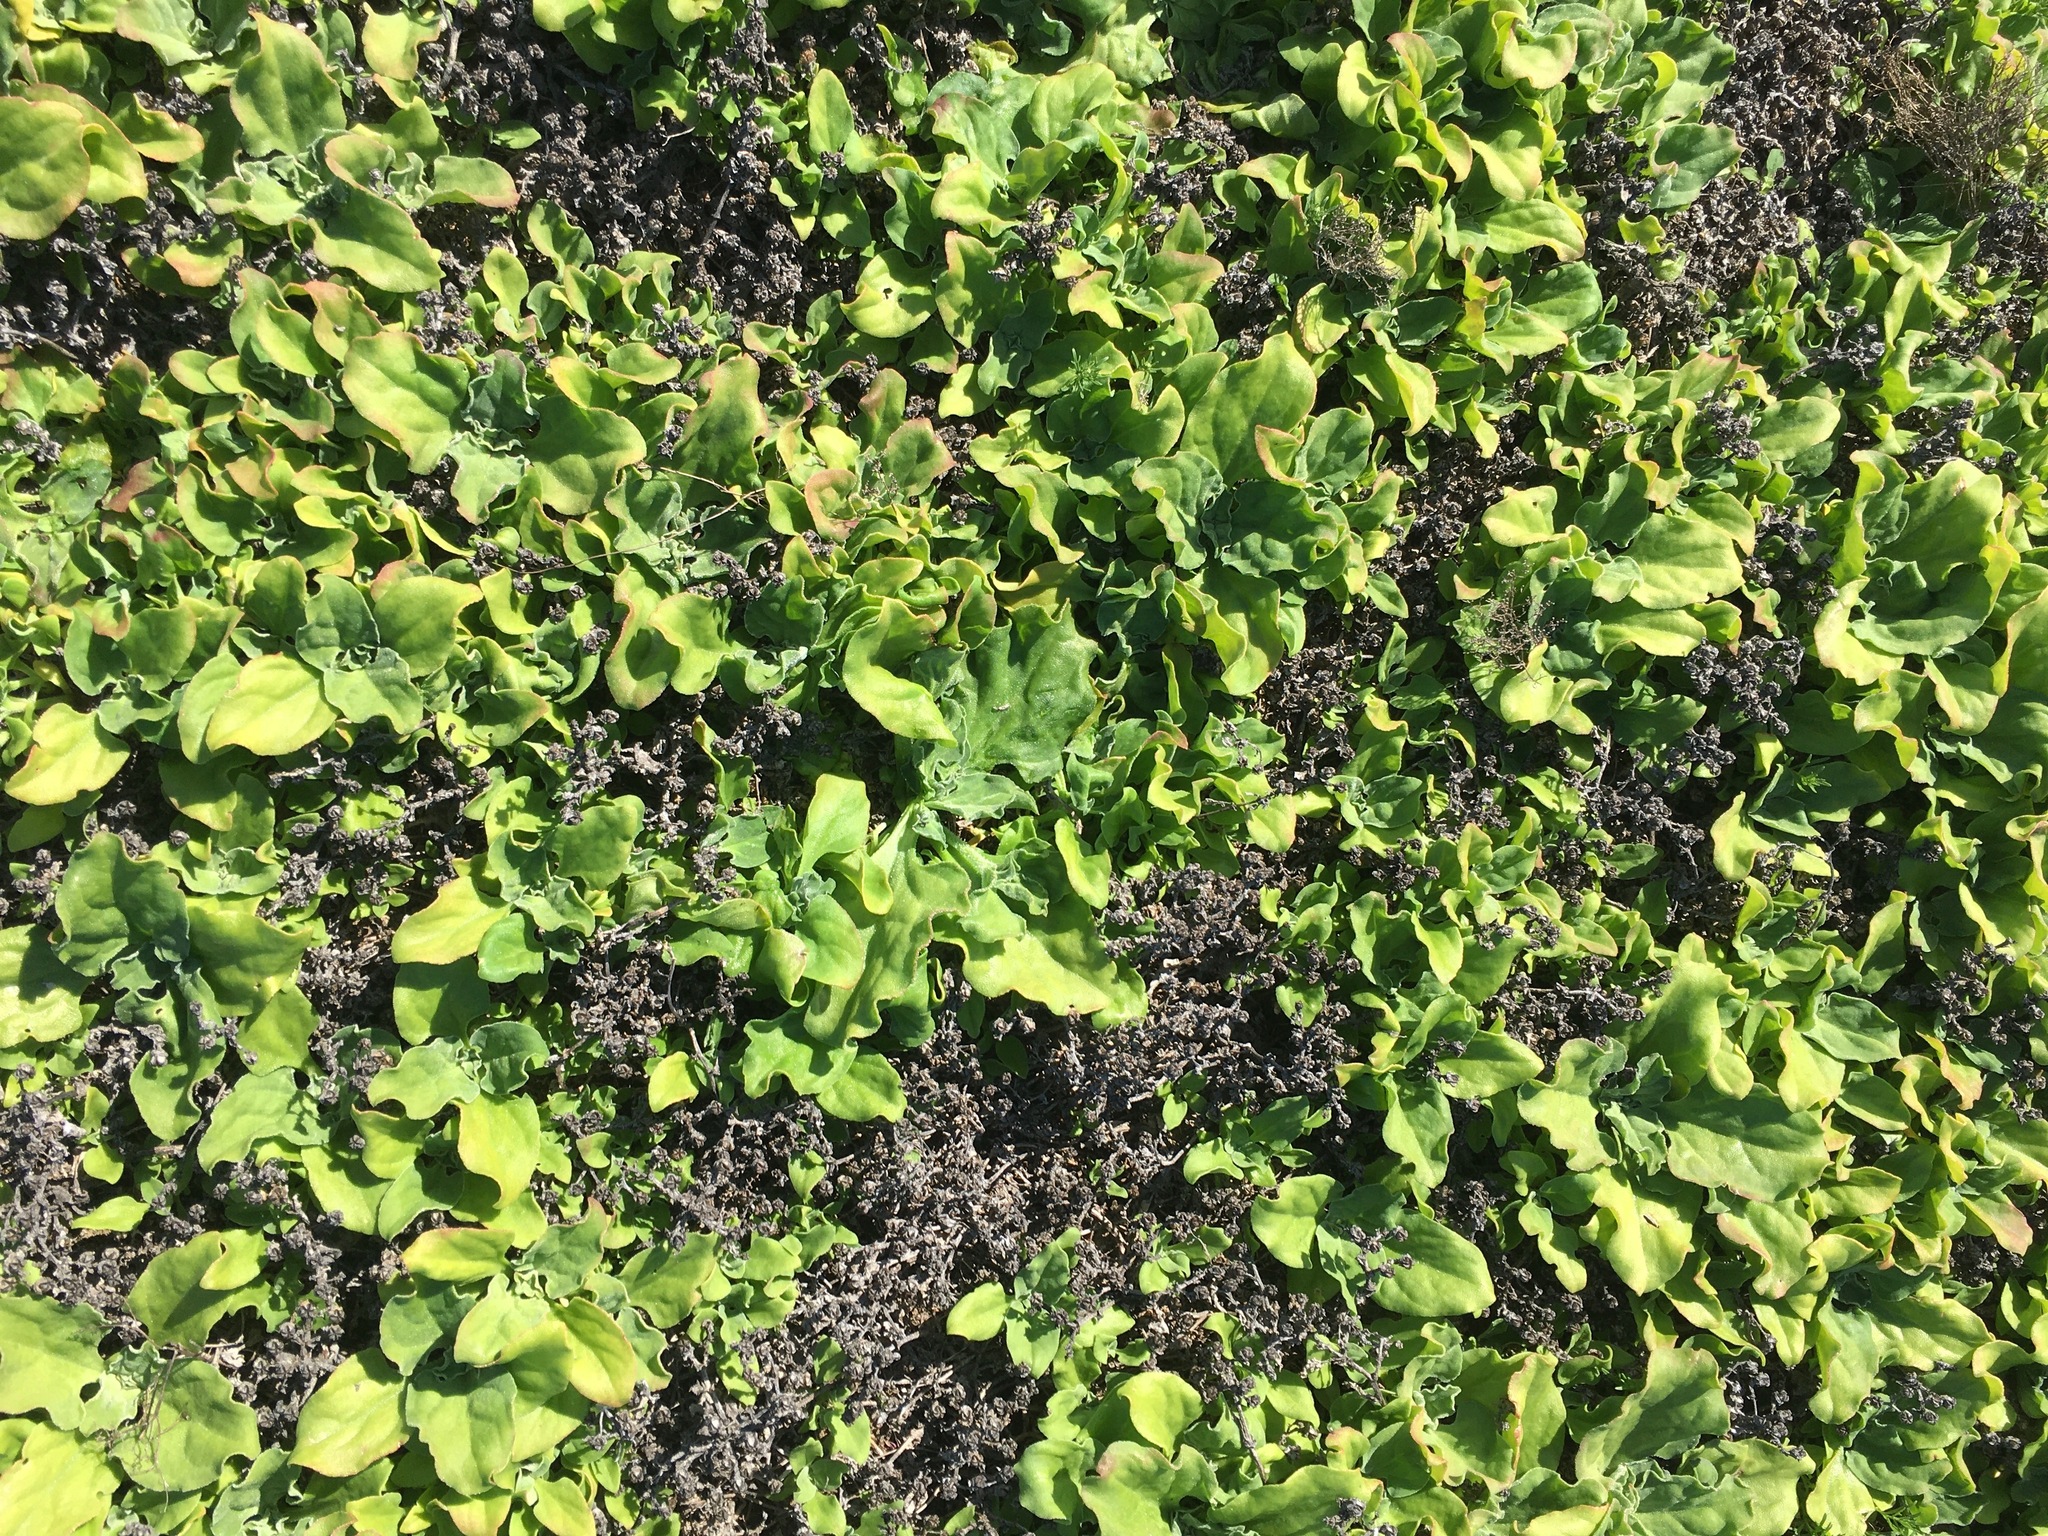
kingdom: Plantae
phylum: Tracheophyta
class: Magnoliopsida
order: Caryophyllales
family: Aizoaceae
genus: Mesembryanthemum
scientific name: Mesembryanthemum crystallinum
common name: Common iceplant
